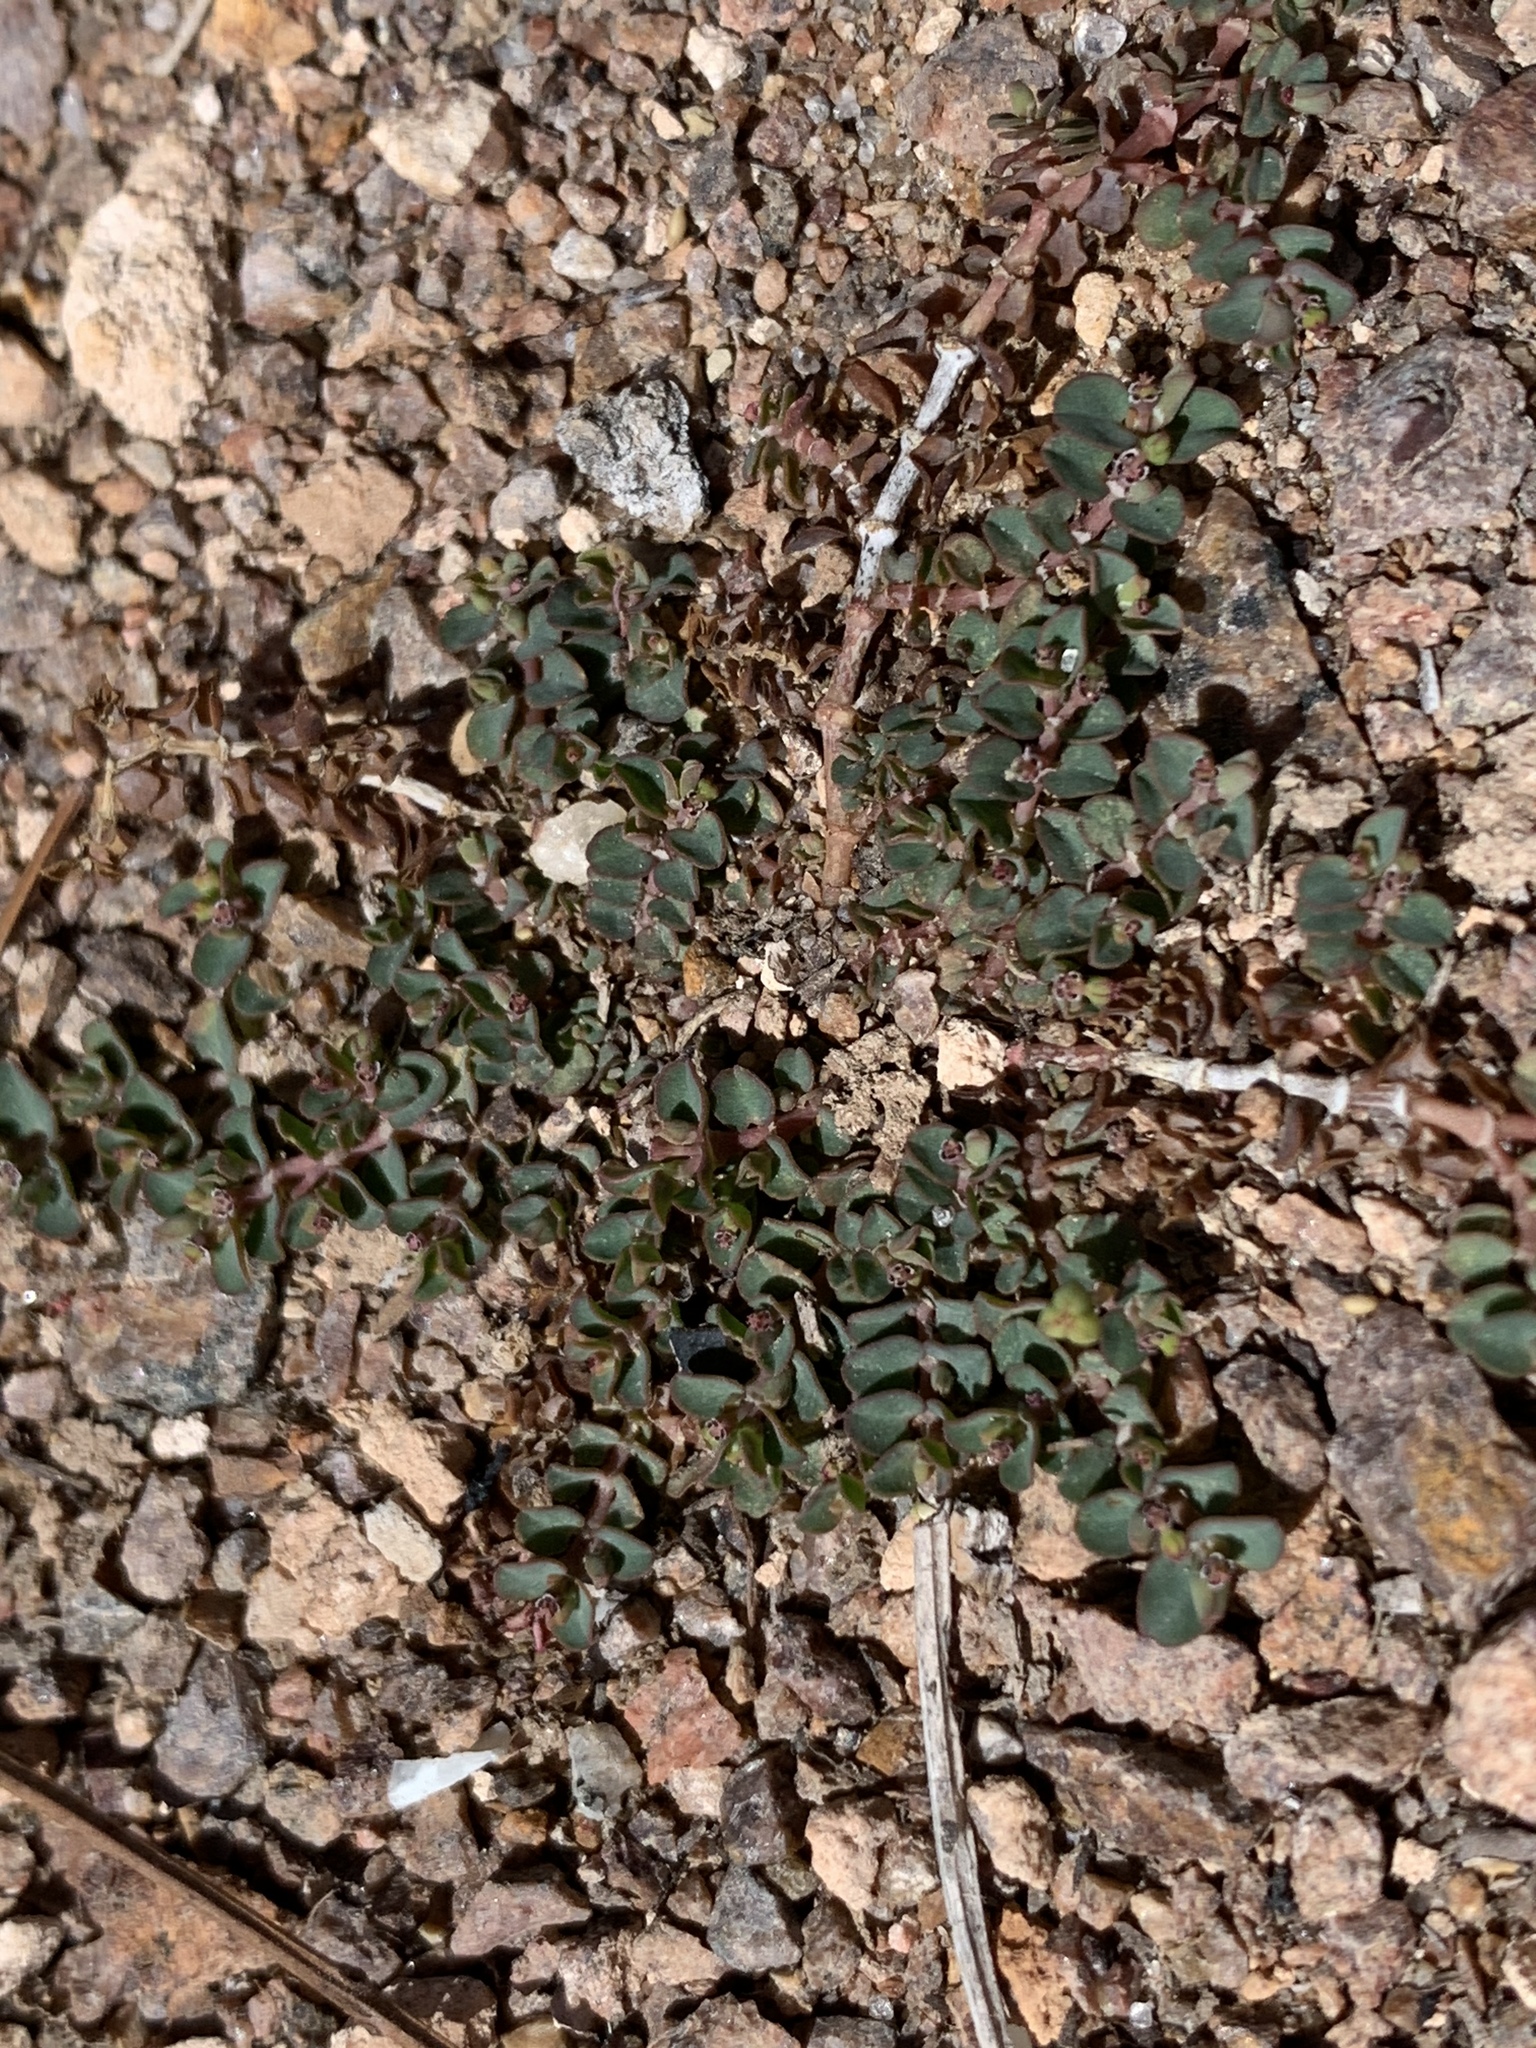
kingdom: Plantae
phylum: Tracheophyta
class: Magnoliopsida
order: Malpighiales
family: Euphorbiaceae
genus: Euphorbia
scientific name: Euphorbia serpens
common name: Matted sandmat
